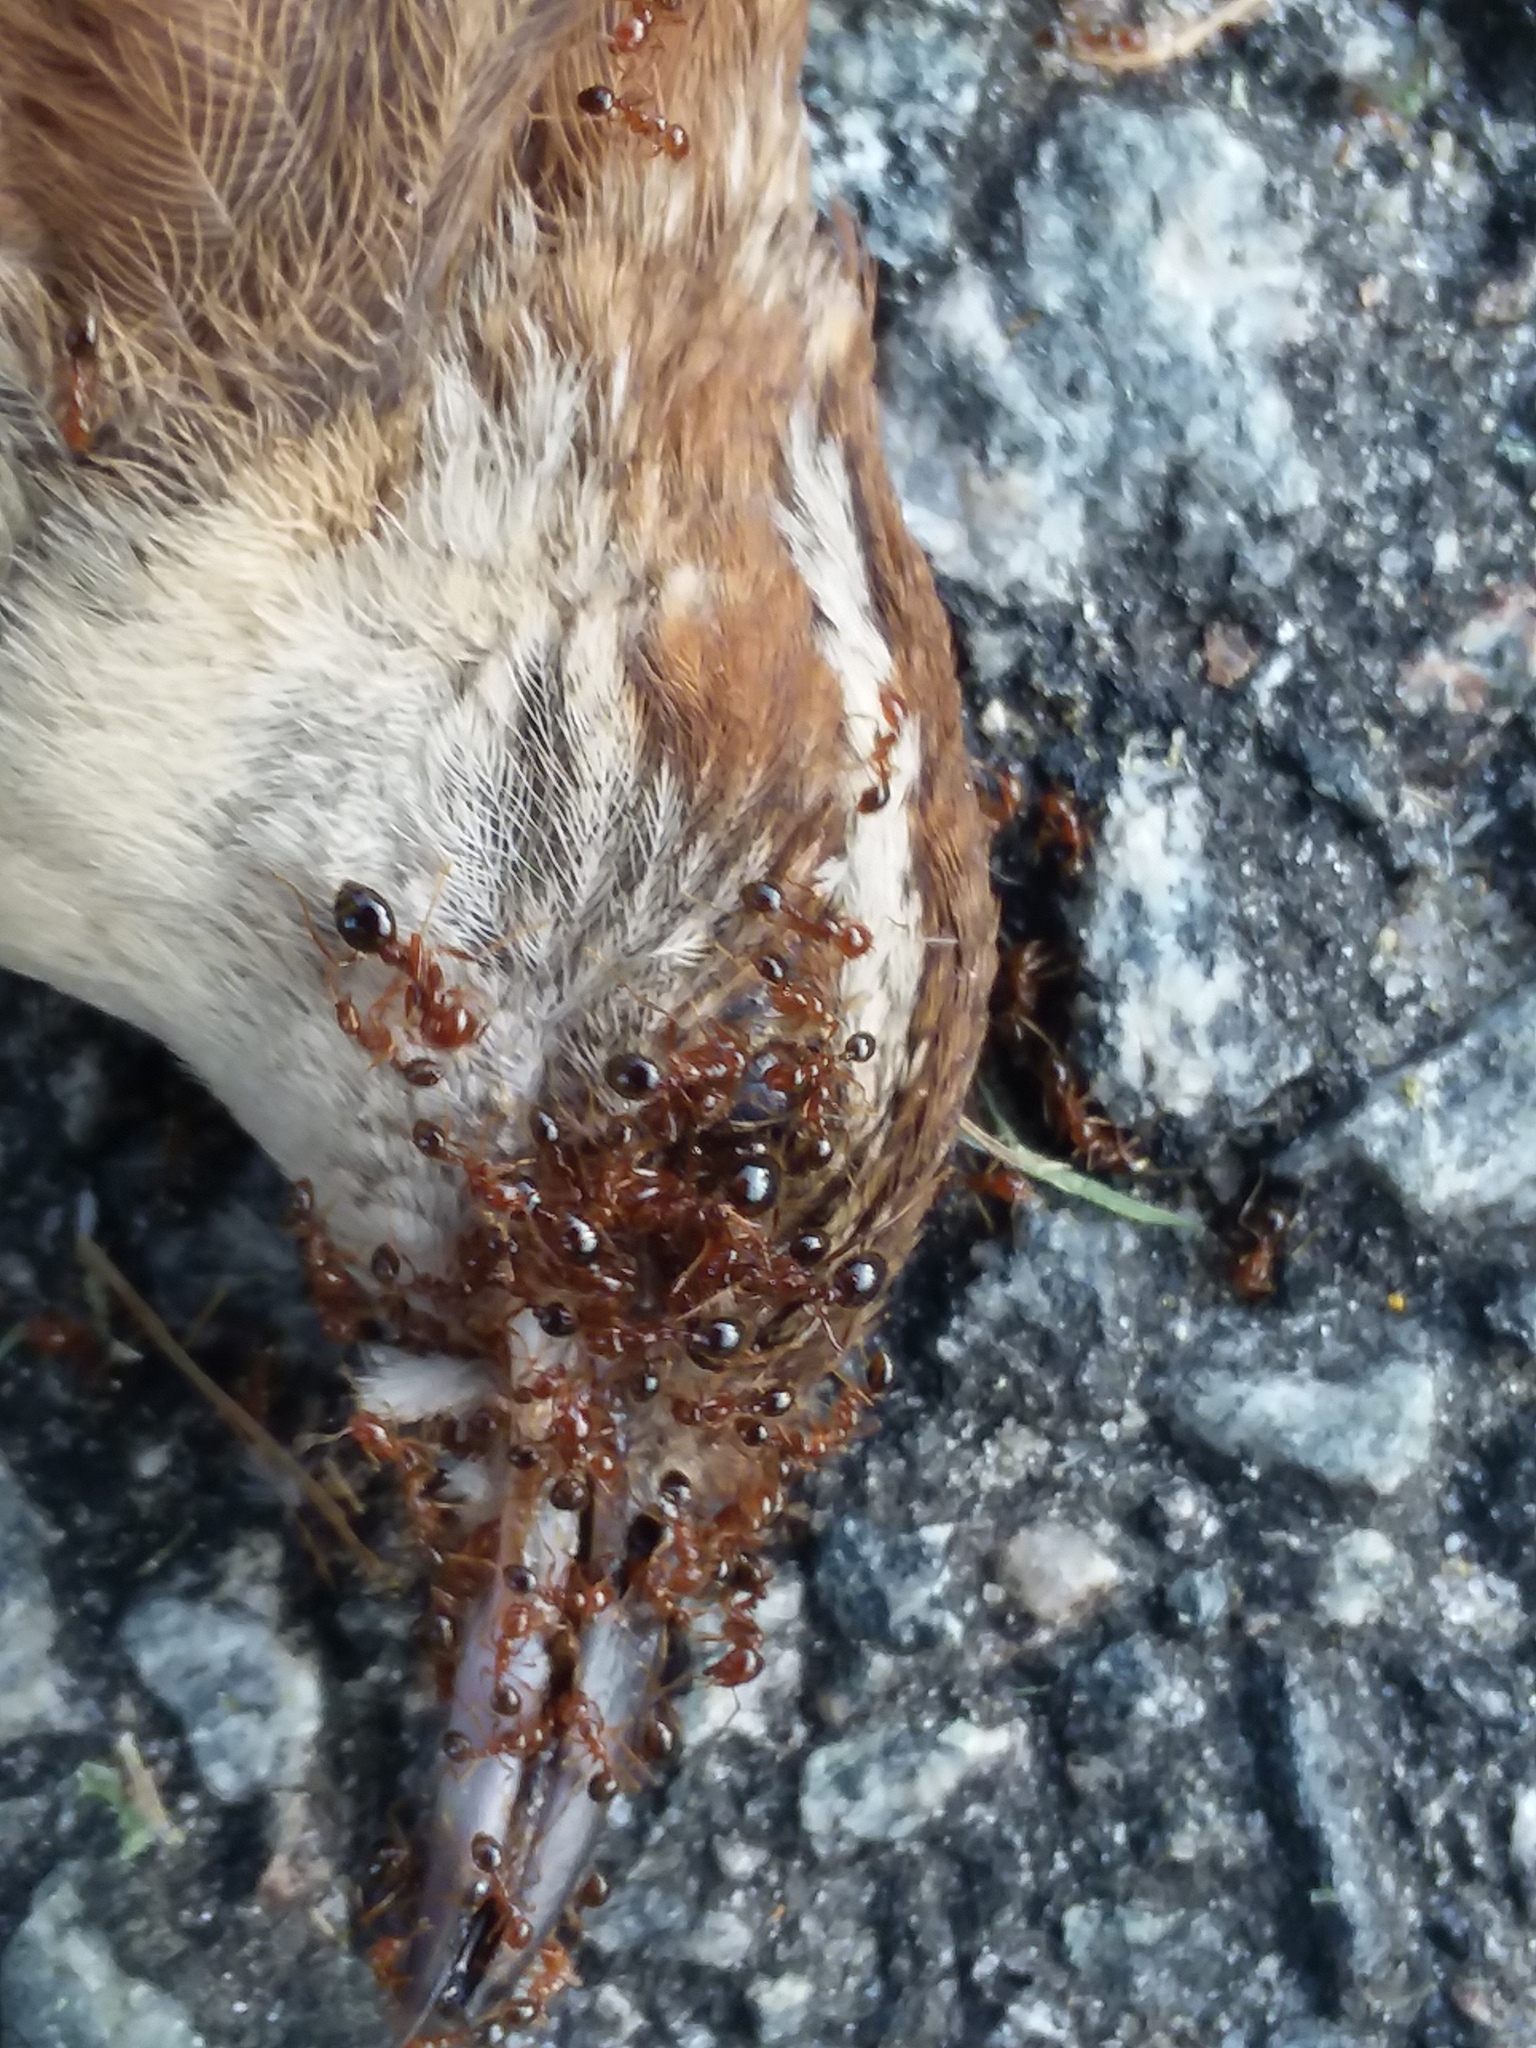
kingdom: Animalia
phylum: Arthropoda
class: Insecta
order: Hymenoptera
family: Formicidae
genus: Solenopsis
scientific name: Solenopsis invicta
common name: Red imported fire ant
